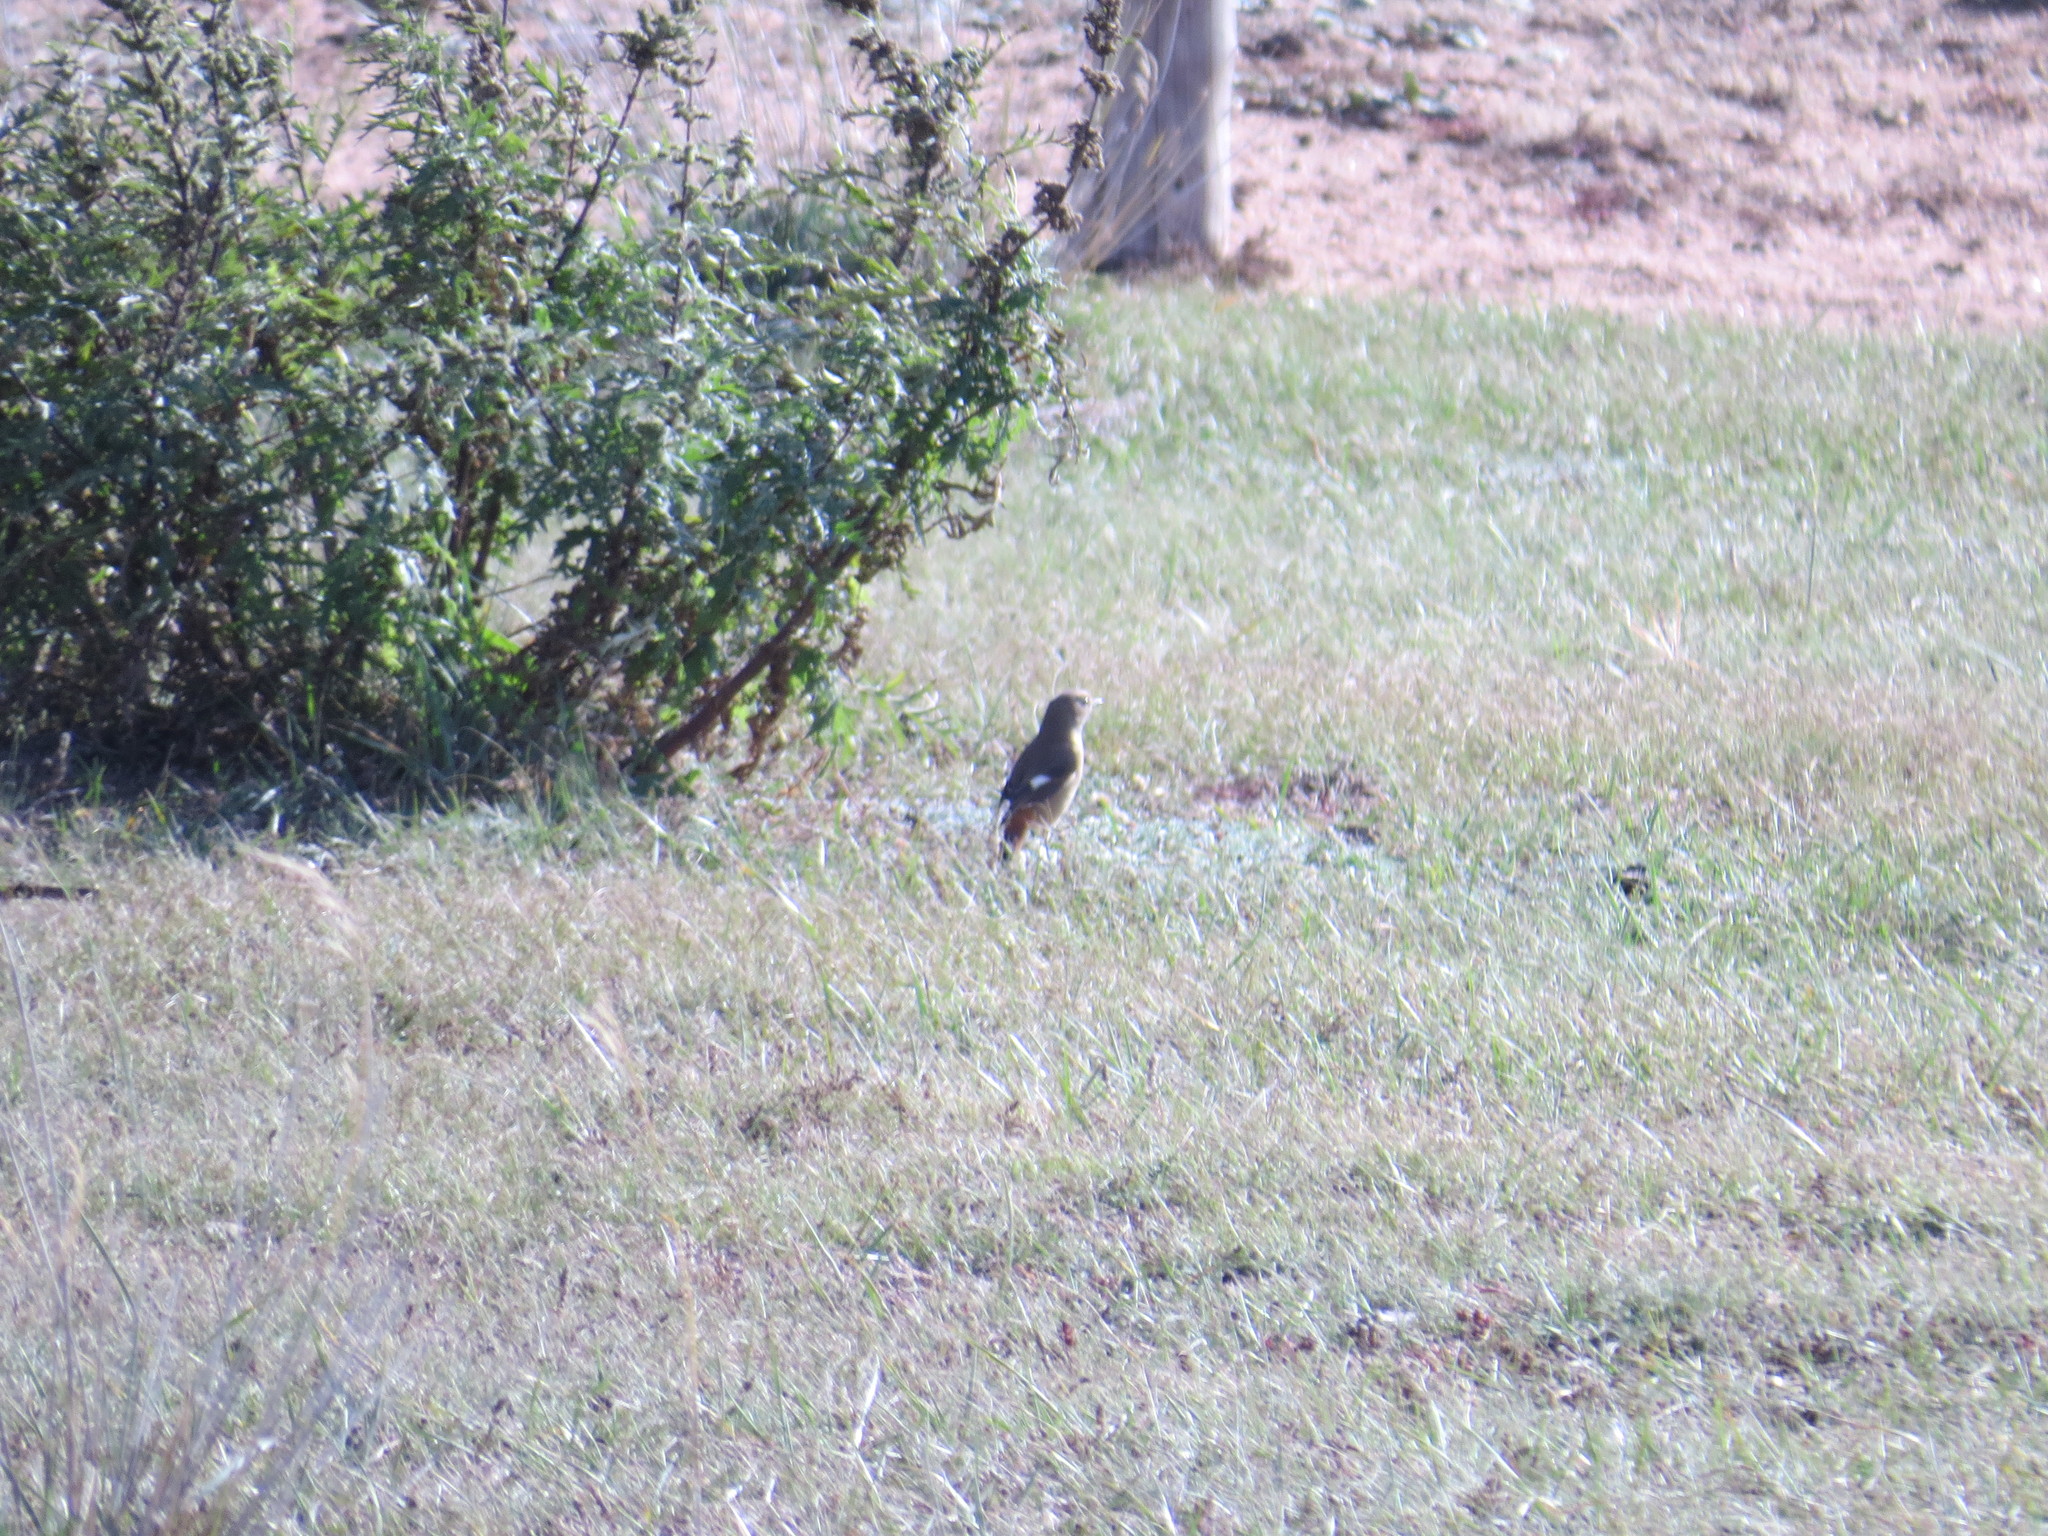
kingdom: Animalia
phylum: Chordata
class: Aves
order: Passeriformes
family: Muscicapidae
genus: Phoenicurus
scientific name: Phoenicurus auroreus
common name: Daurian redstart
